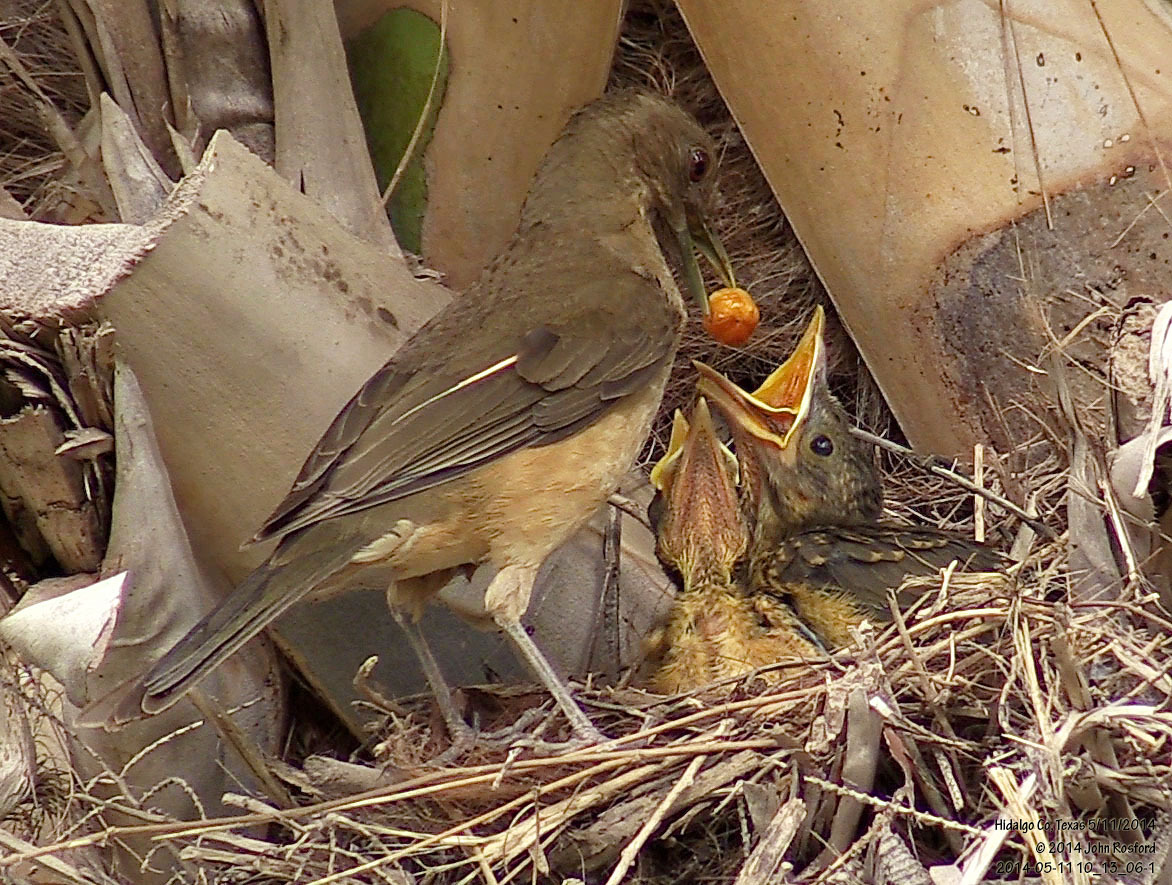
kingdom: Animalia
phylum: Chordata
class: Aves
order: Passeriformes
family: Turdidae
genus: Turdus
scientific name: Turdus grayi
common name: Clay-colored thrush
